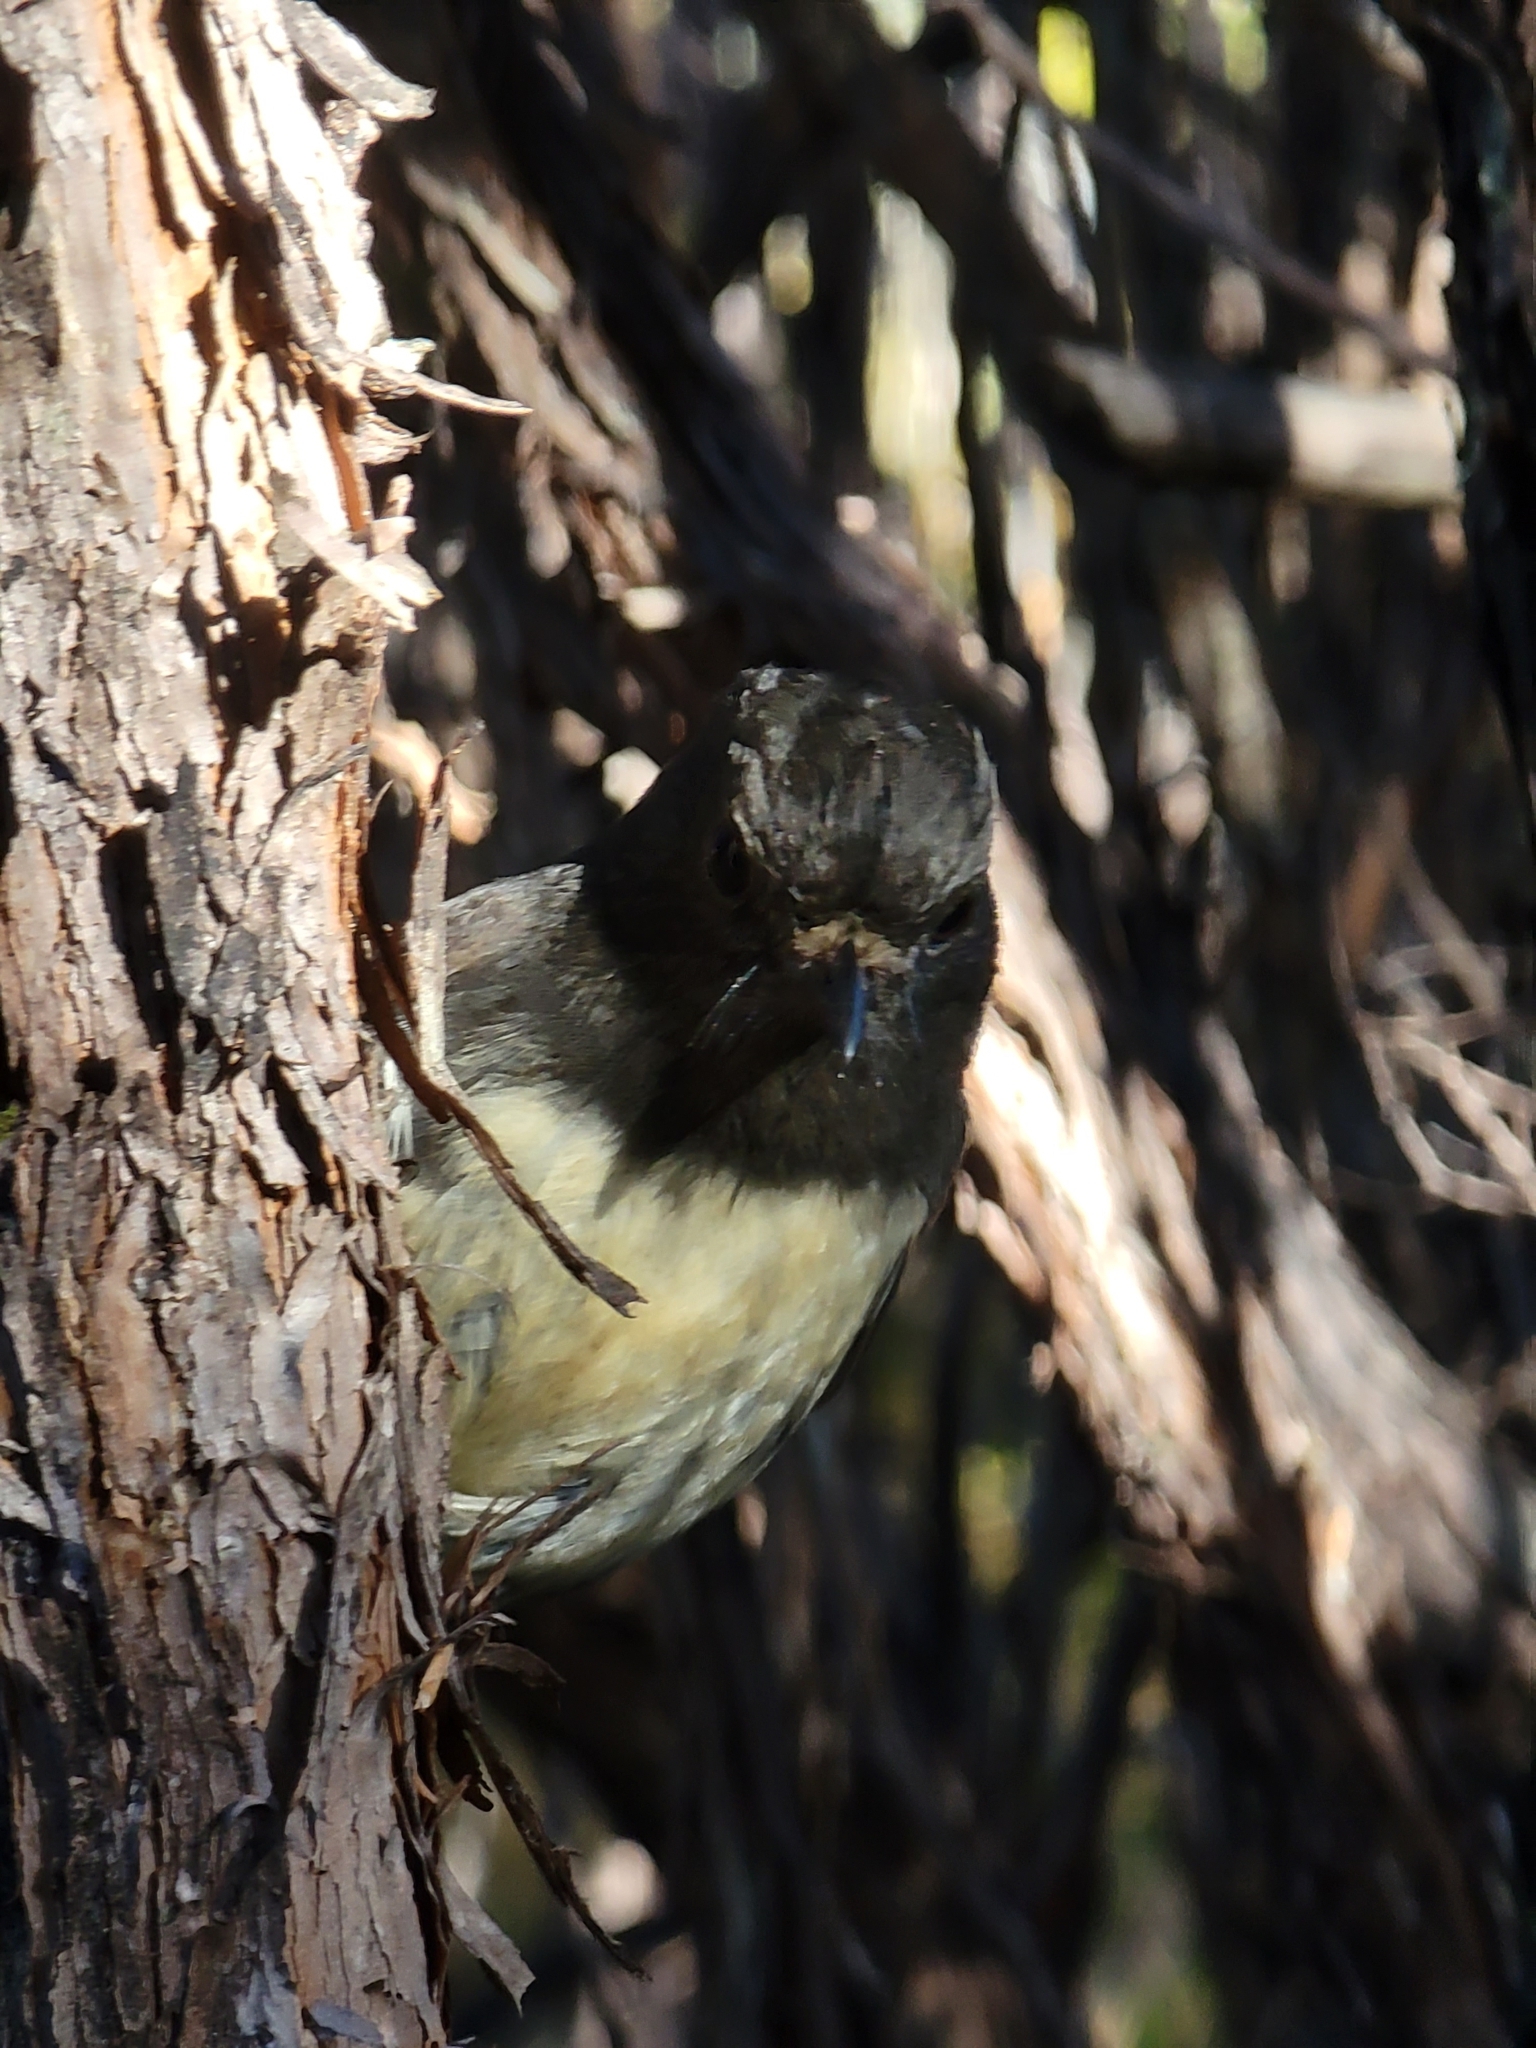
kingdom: Animalia
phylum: Chordata
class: Aves
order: Passeriformes
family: Petroicidae
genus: Petroica
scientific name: Petroica australis
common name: New zealand robin
